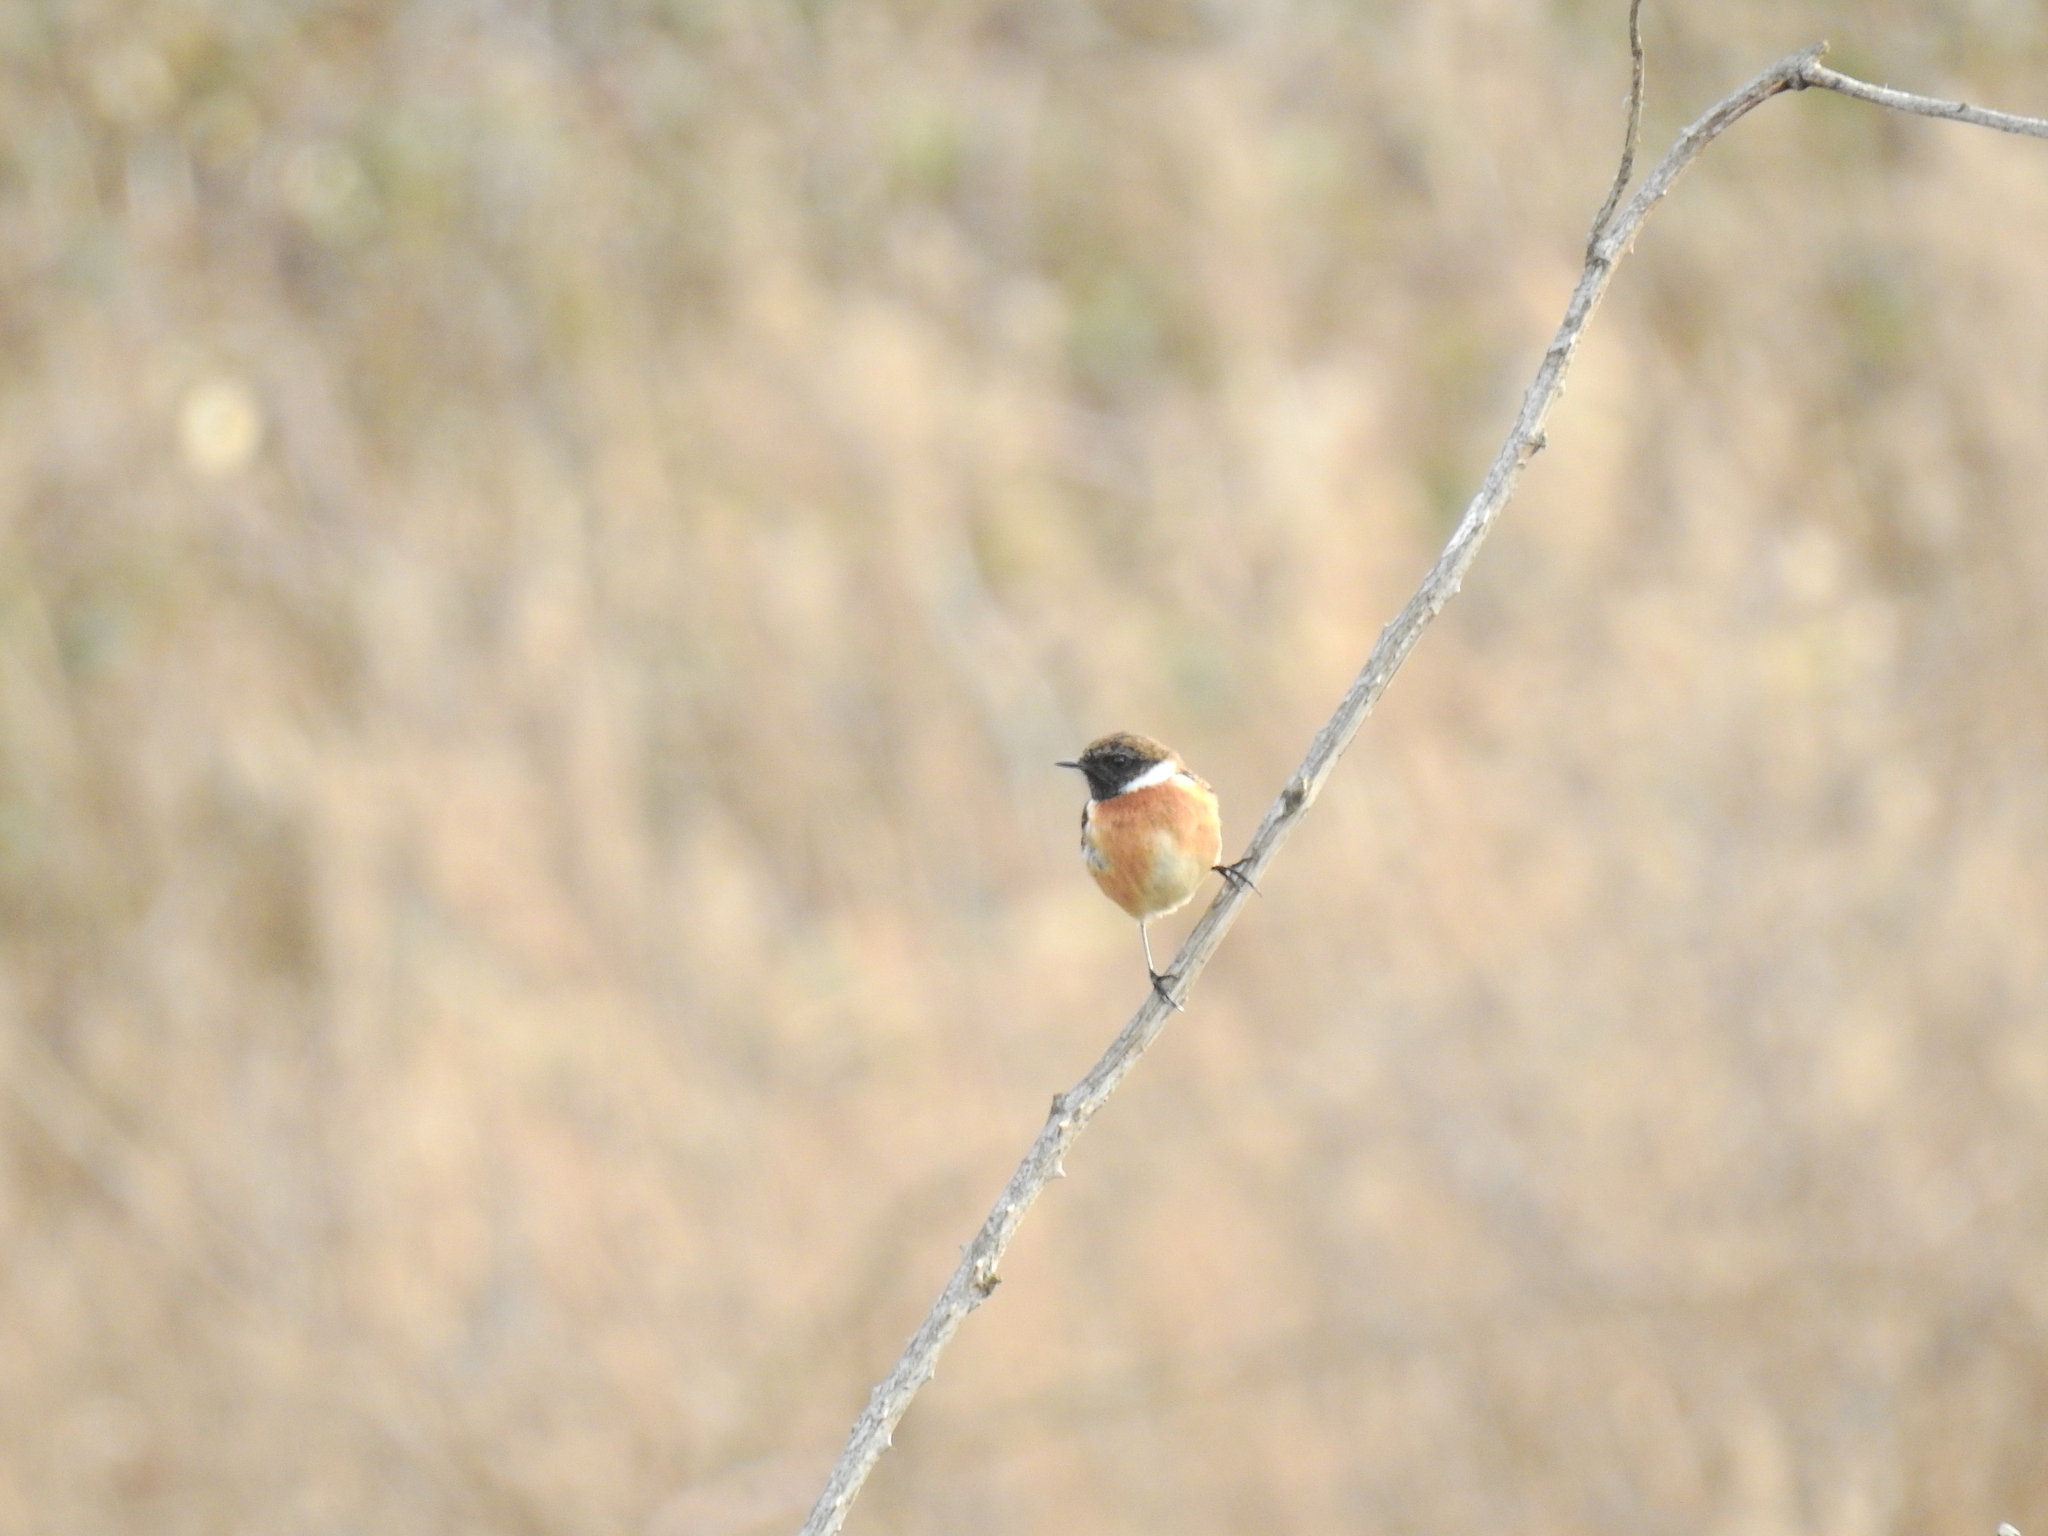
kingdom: Animalia
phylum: Chordata
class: Aves
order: Passeriformes
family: Muscicapidae
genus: Saxicola
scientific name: Saxicola rubicola
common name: European stonechat
